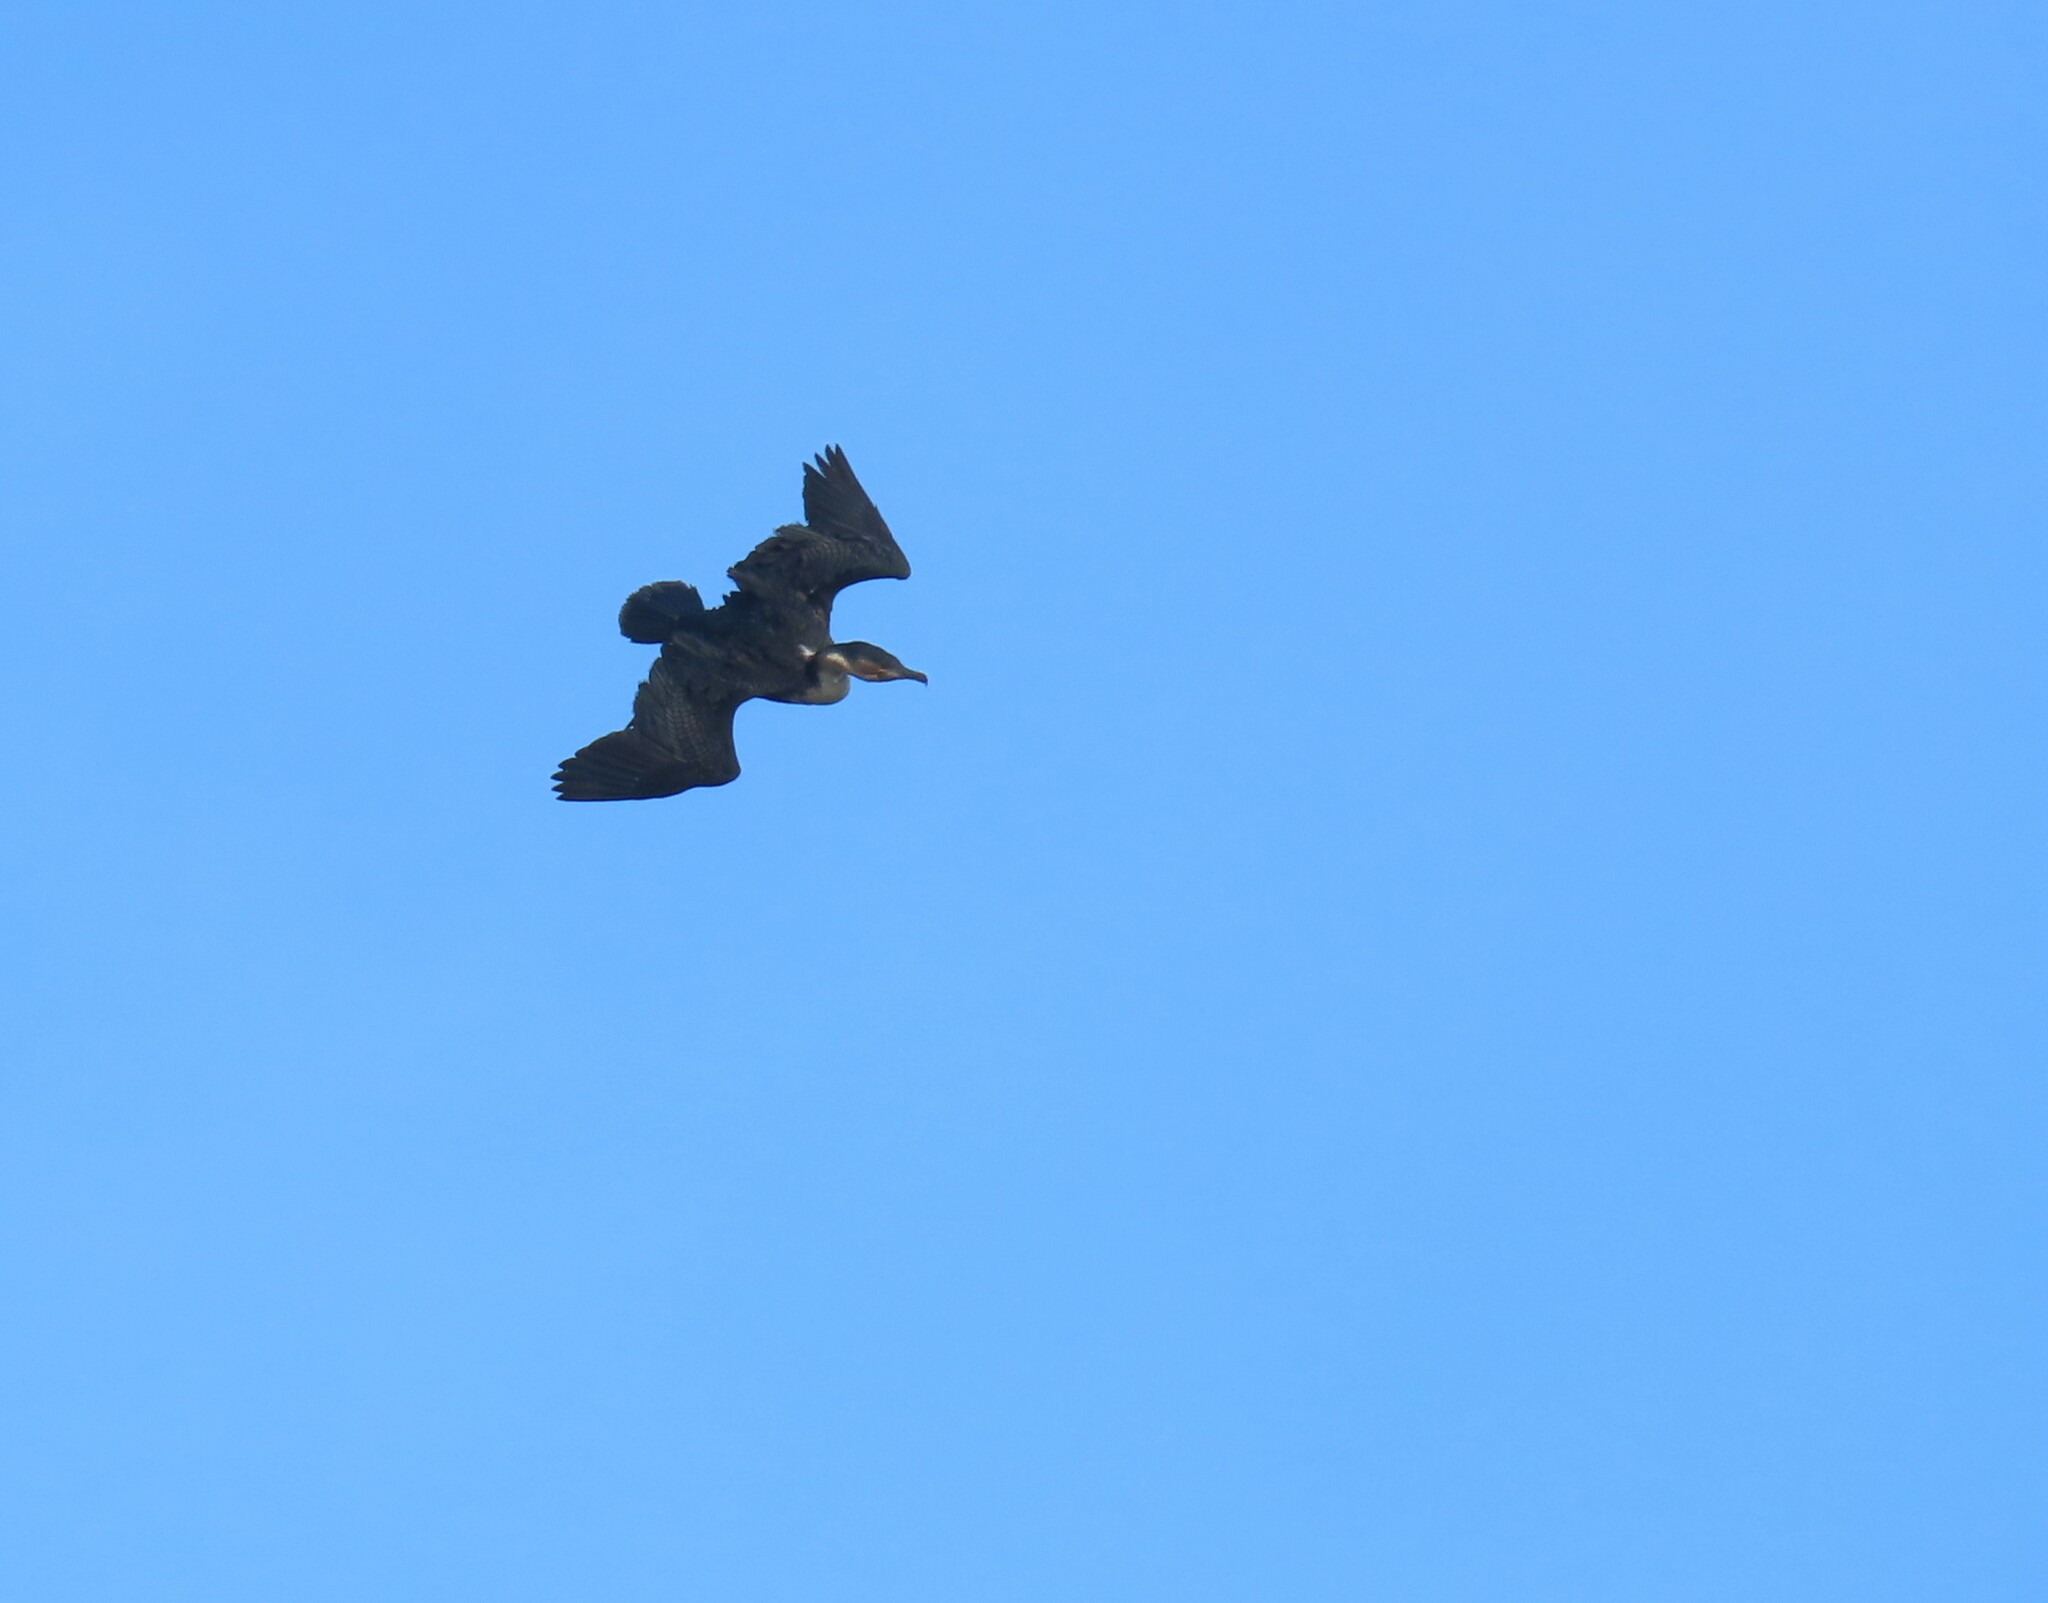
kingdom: Animalia
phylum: Chordata
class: Aves
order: Suliformes
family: Phalacrocoracidae
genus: Phalacrocorax
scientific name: Phalacrocorax carbo
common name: Great cormorant
